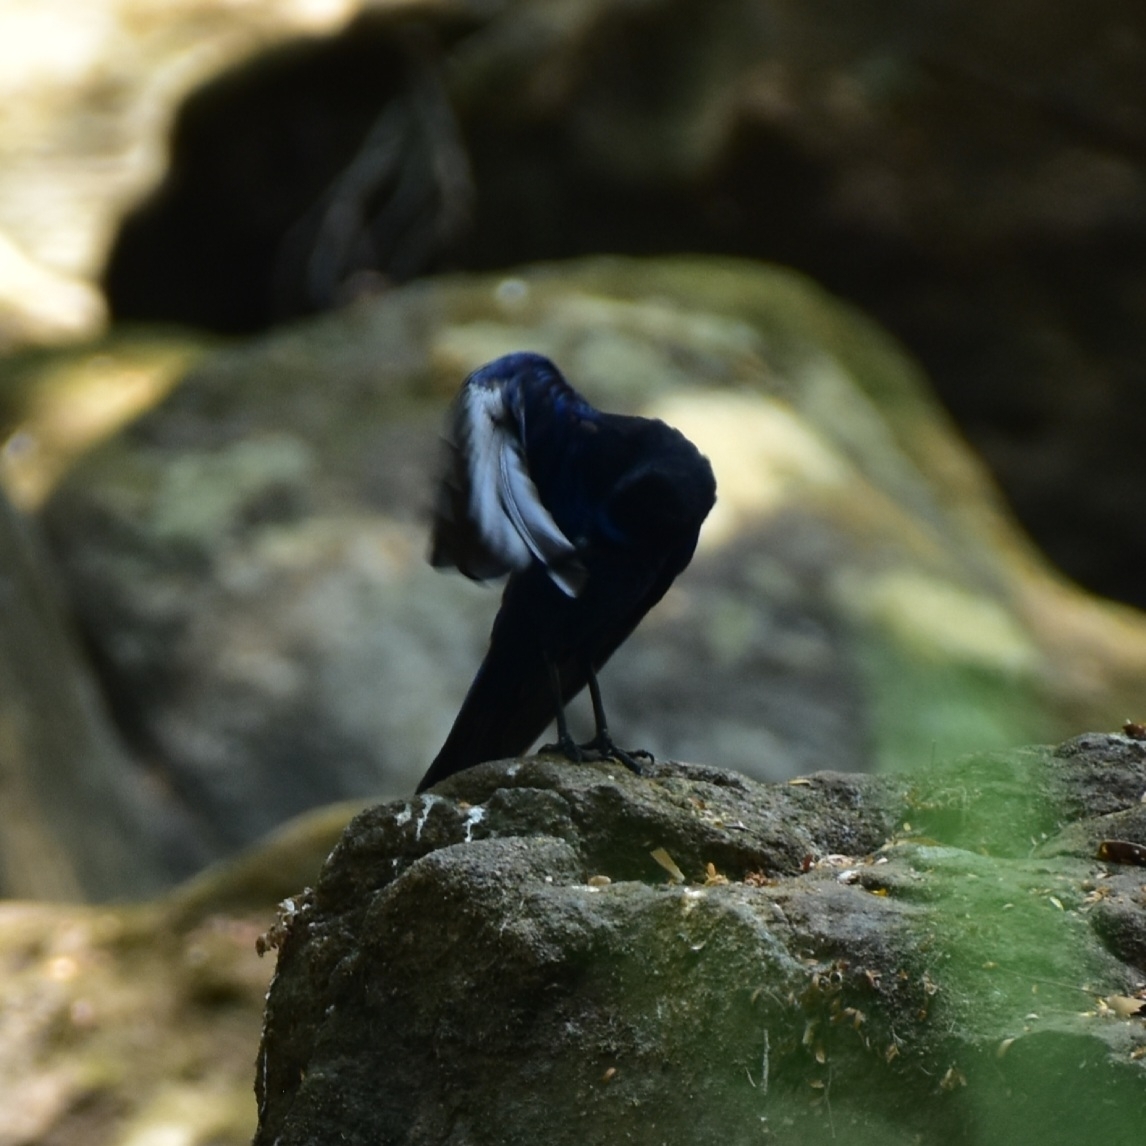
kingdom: Animalia
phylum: Chordata
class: Aves
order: Passeriformes
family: Muscicapidae
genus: Myophonus
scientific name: Myophonus horsfieldii
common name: Malabar whistling-thrush
